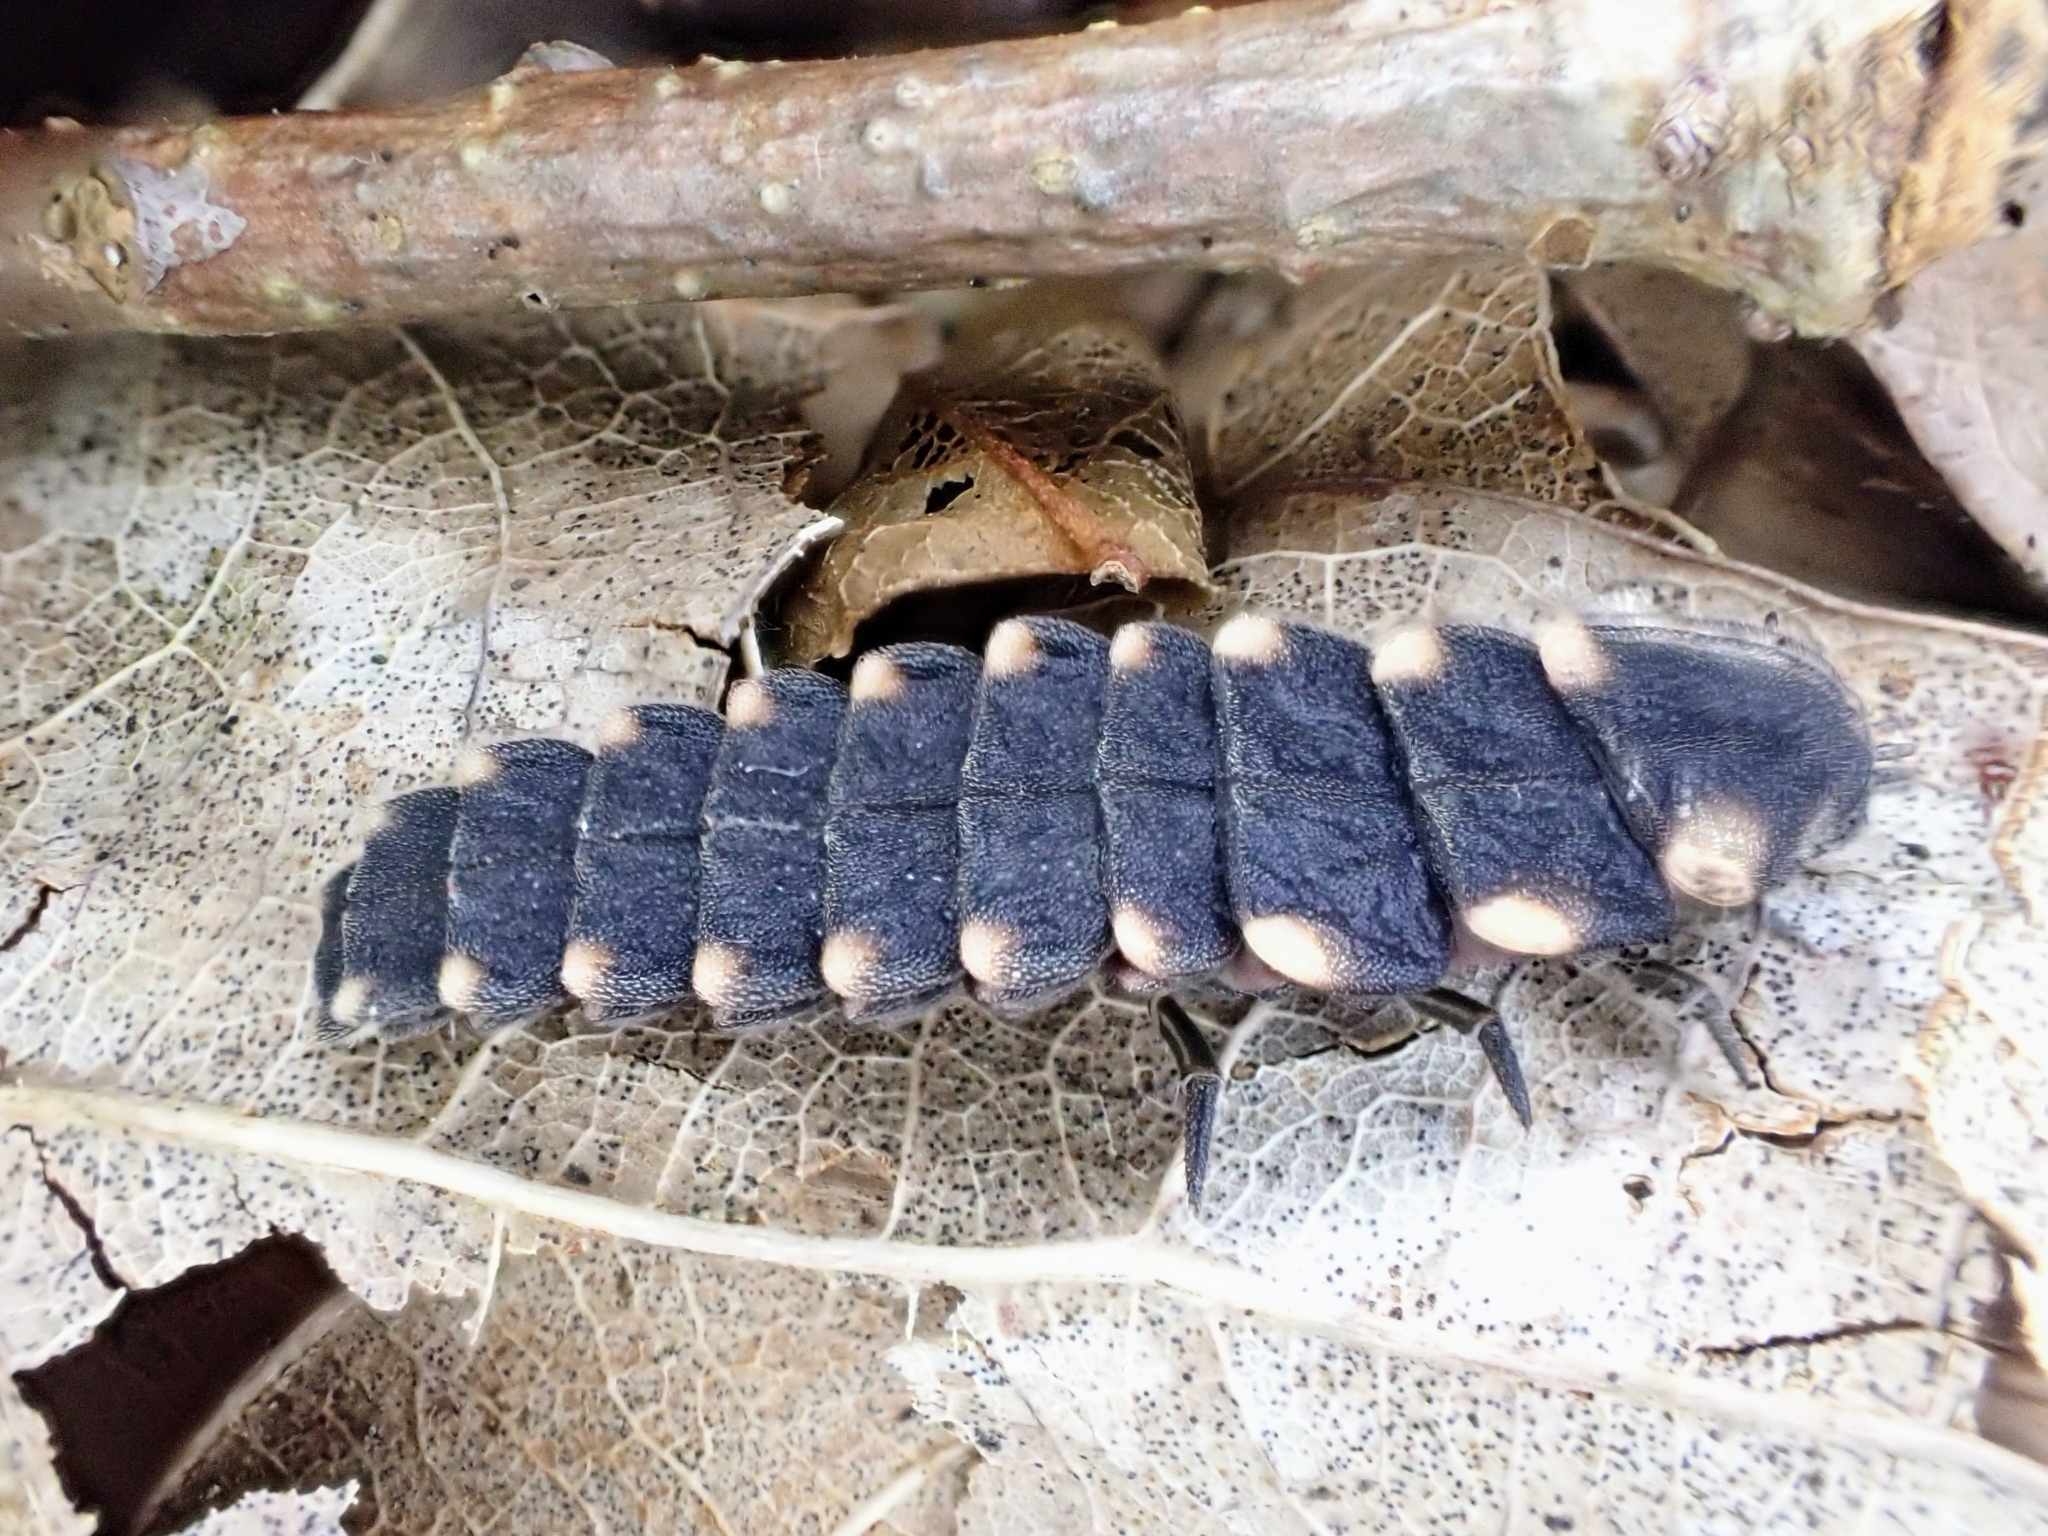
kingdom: Animalia
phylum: Arthropoda
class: Insecta
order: Coleoptera
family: Lampyridae
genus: Lampyris
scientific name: Lampyris noctiluca
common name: Glow-worm
